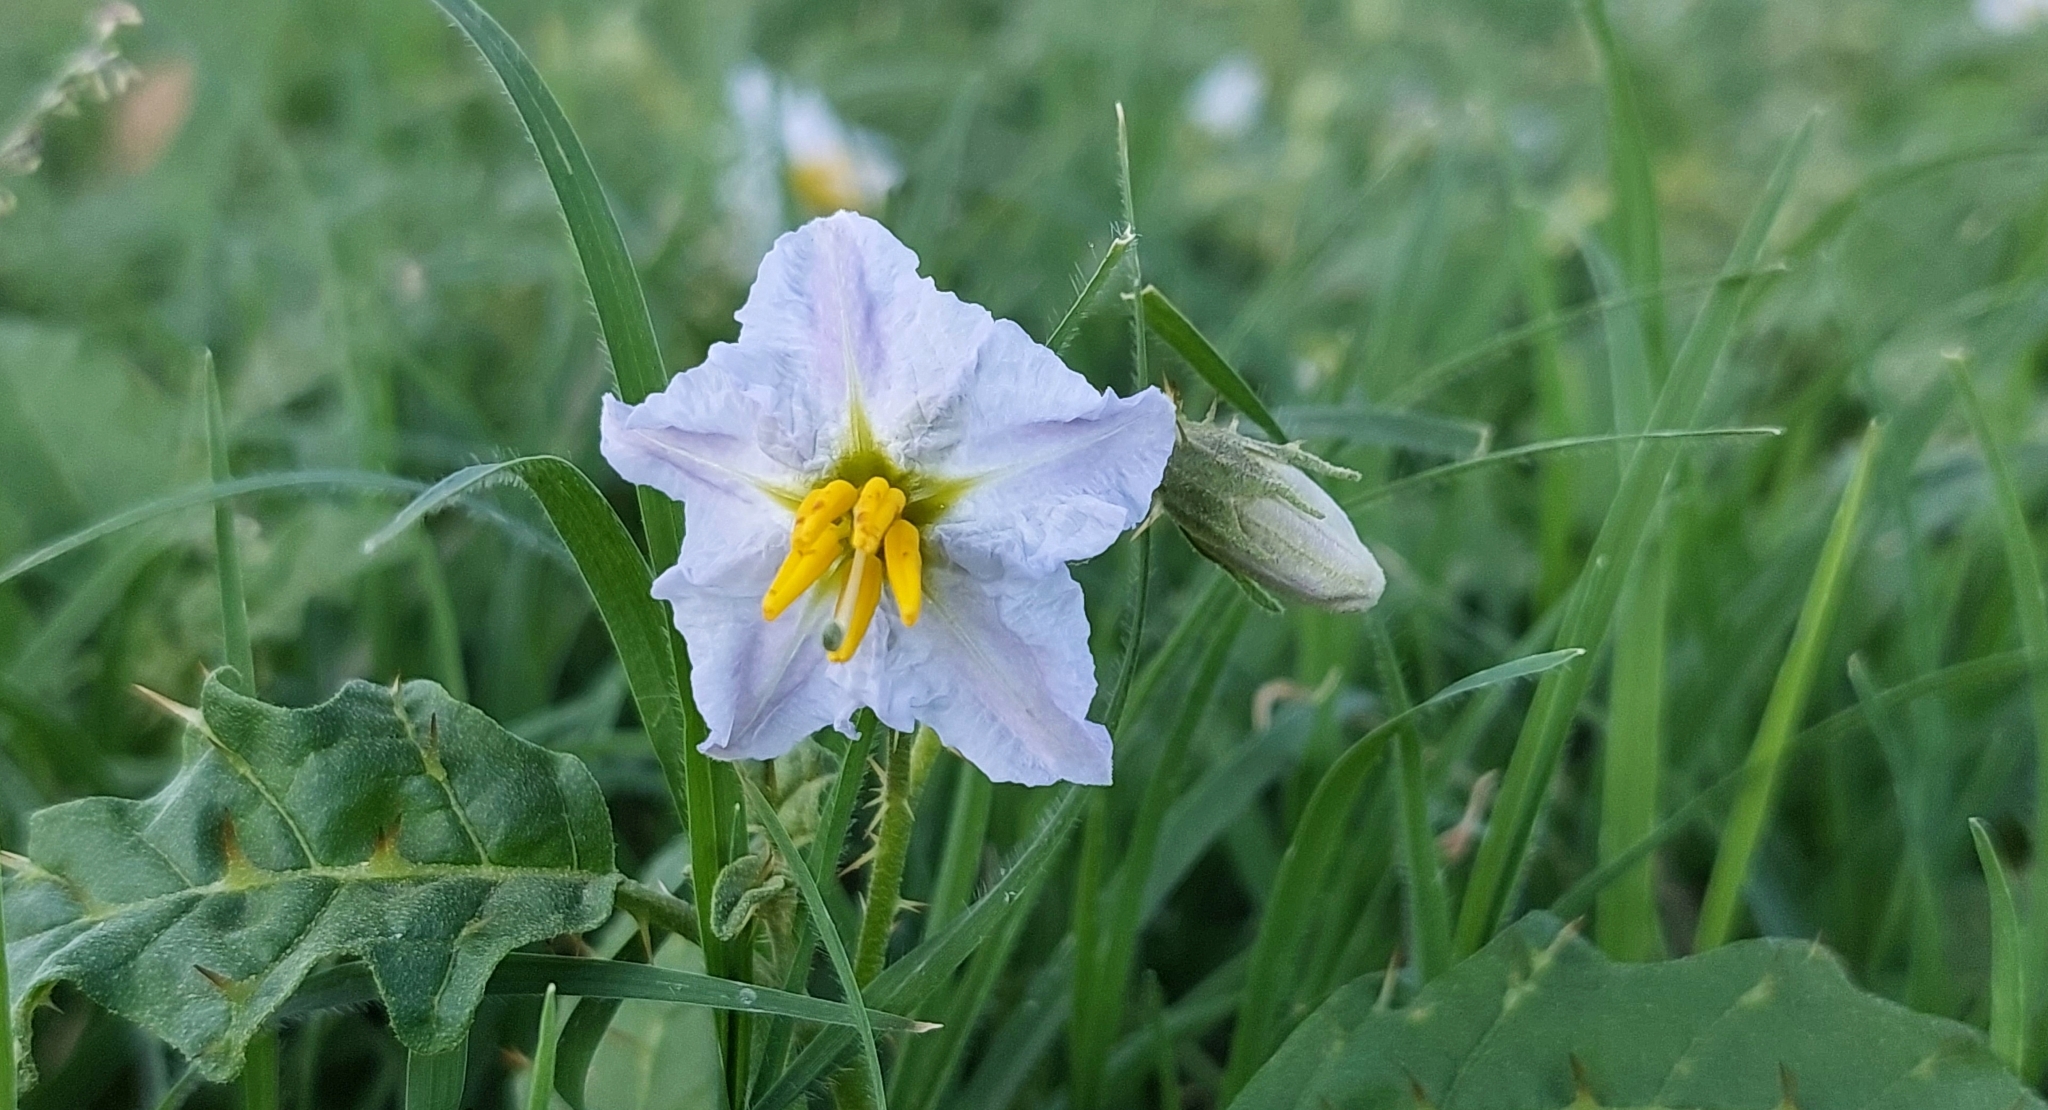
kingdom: Plantae
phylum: Tracheophyta
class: Magnoliopsida
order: Solanales
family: Solanaceae
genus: Solanum
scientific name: Solanum juvenale
